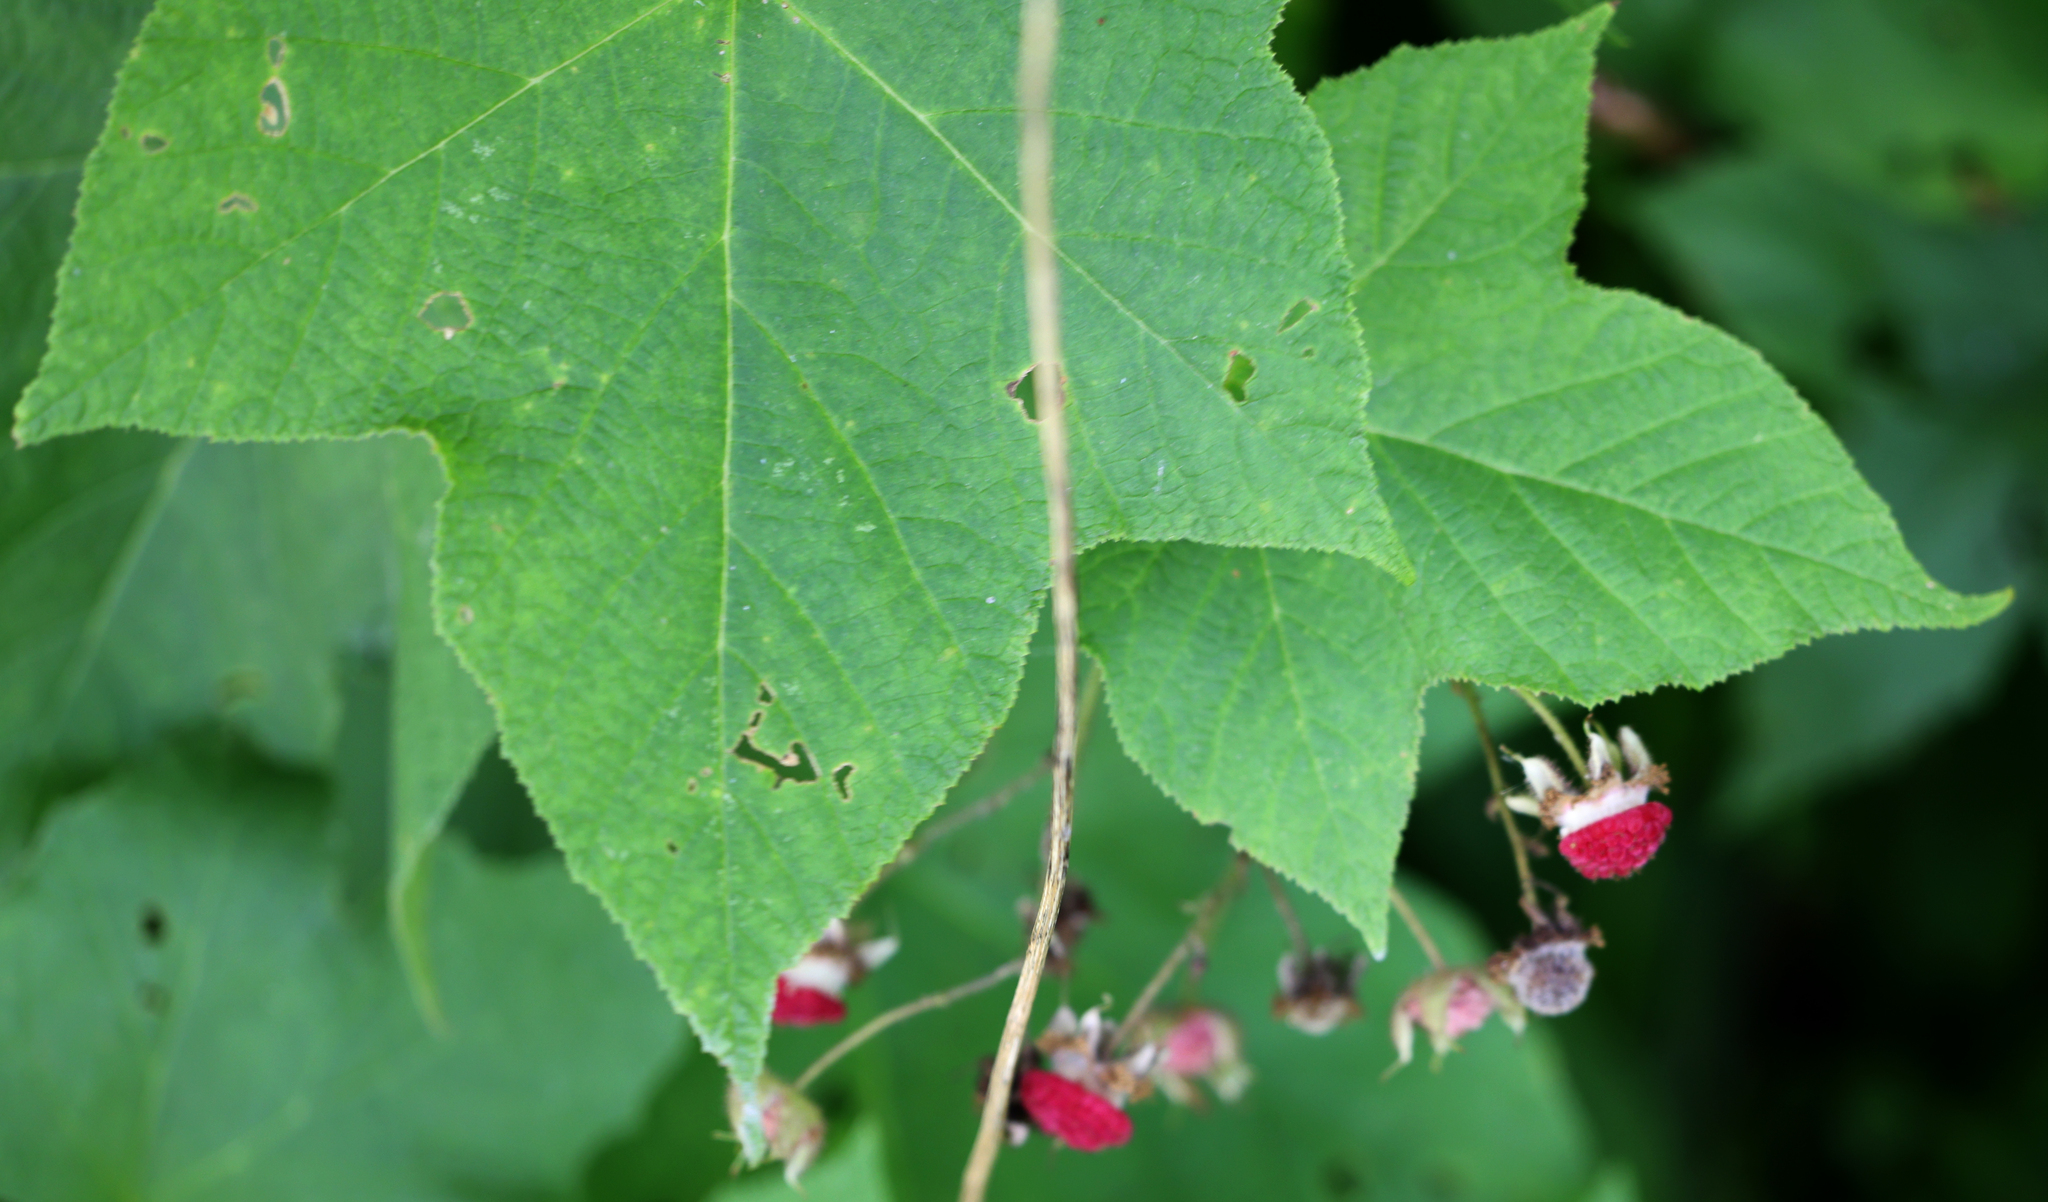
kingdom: Plantae
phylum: Tracheophyta
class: Magnoliopsida
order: Rosales
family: Rosaceae
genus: Rubus
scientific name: Rubus odoratus
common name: Purple-flowered raspberry
